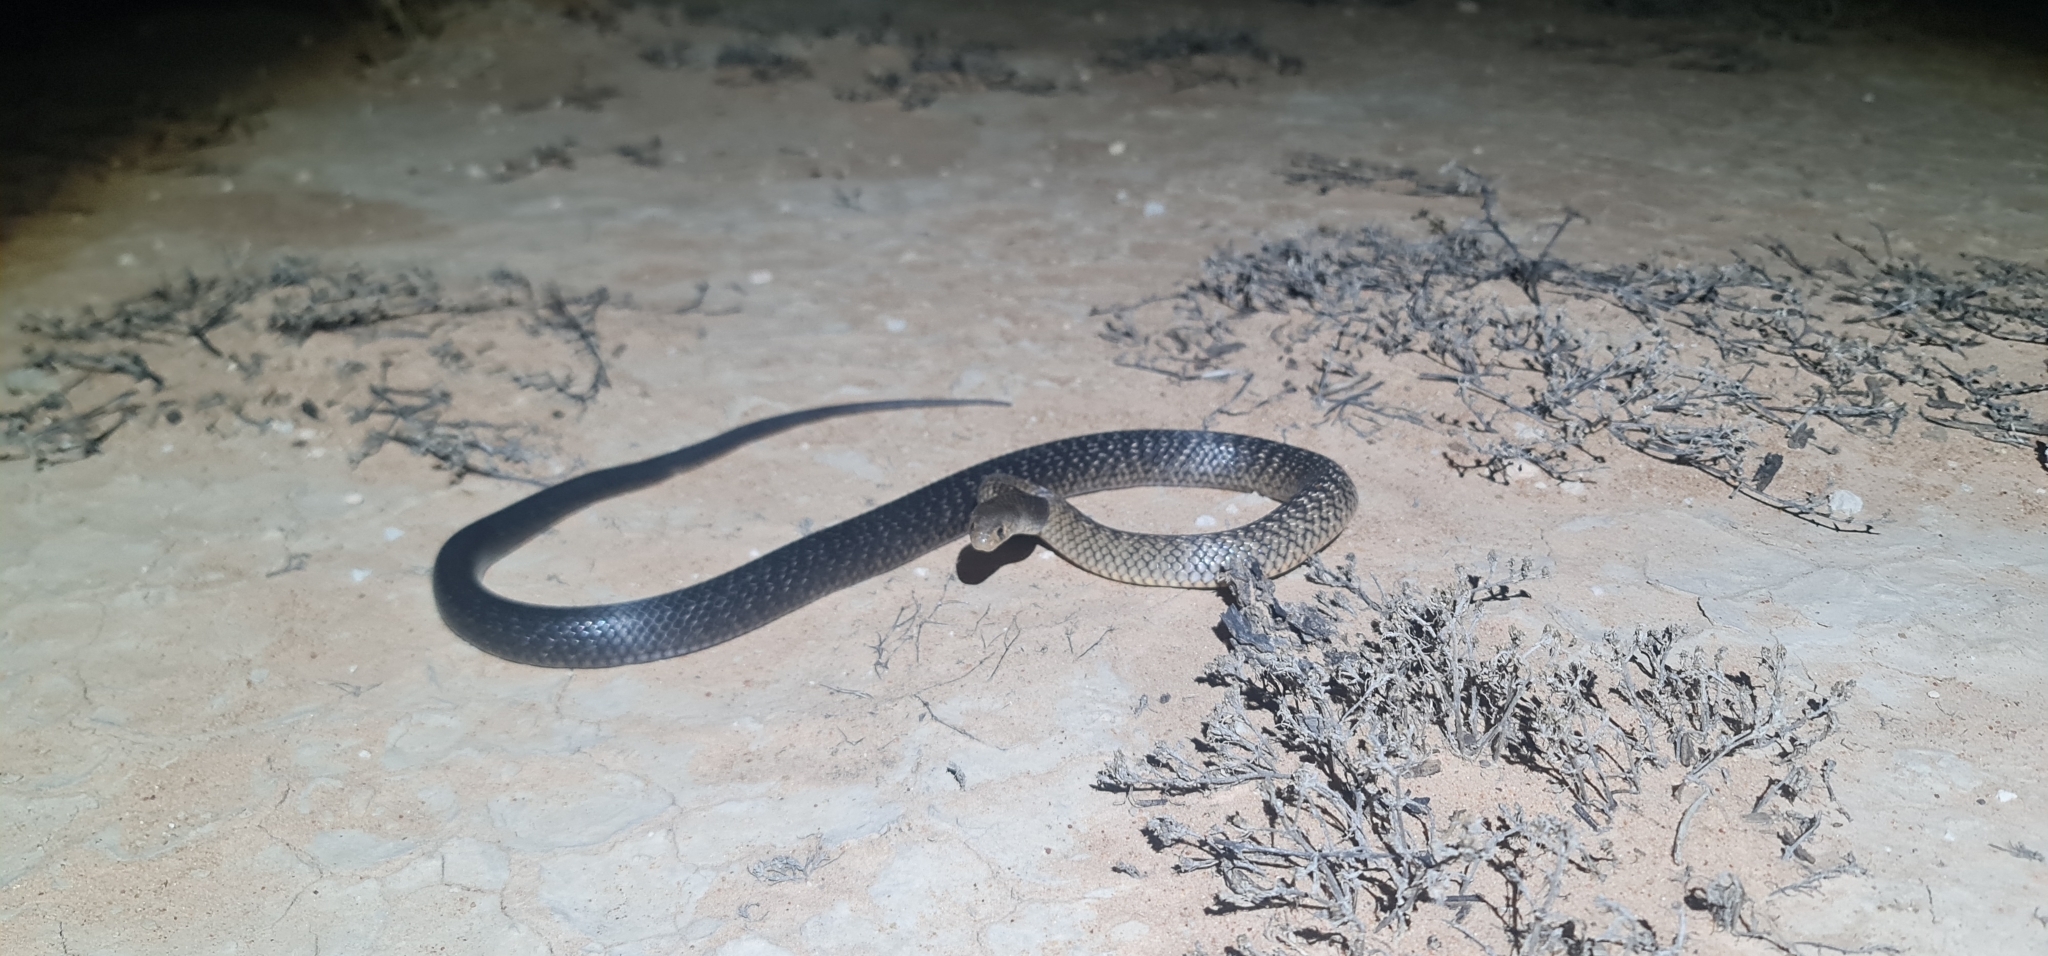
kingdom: Animalia
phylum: Chordata
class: Squamata
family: Elapidae
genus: Pseudonaja
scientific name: Pseudonaja textilis
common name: Eastern brown snake
